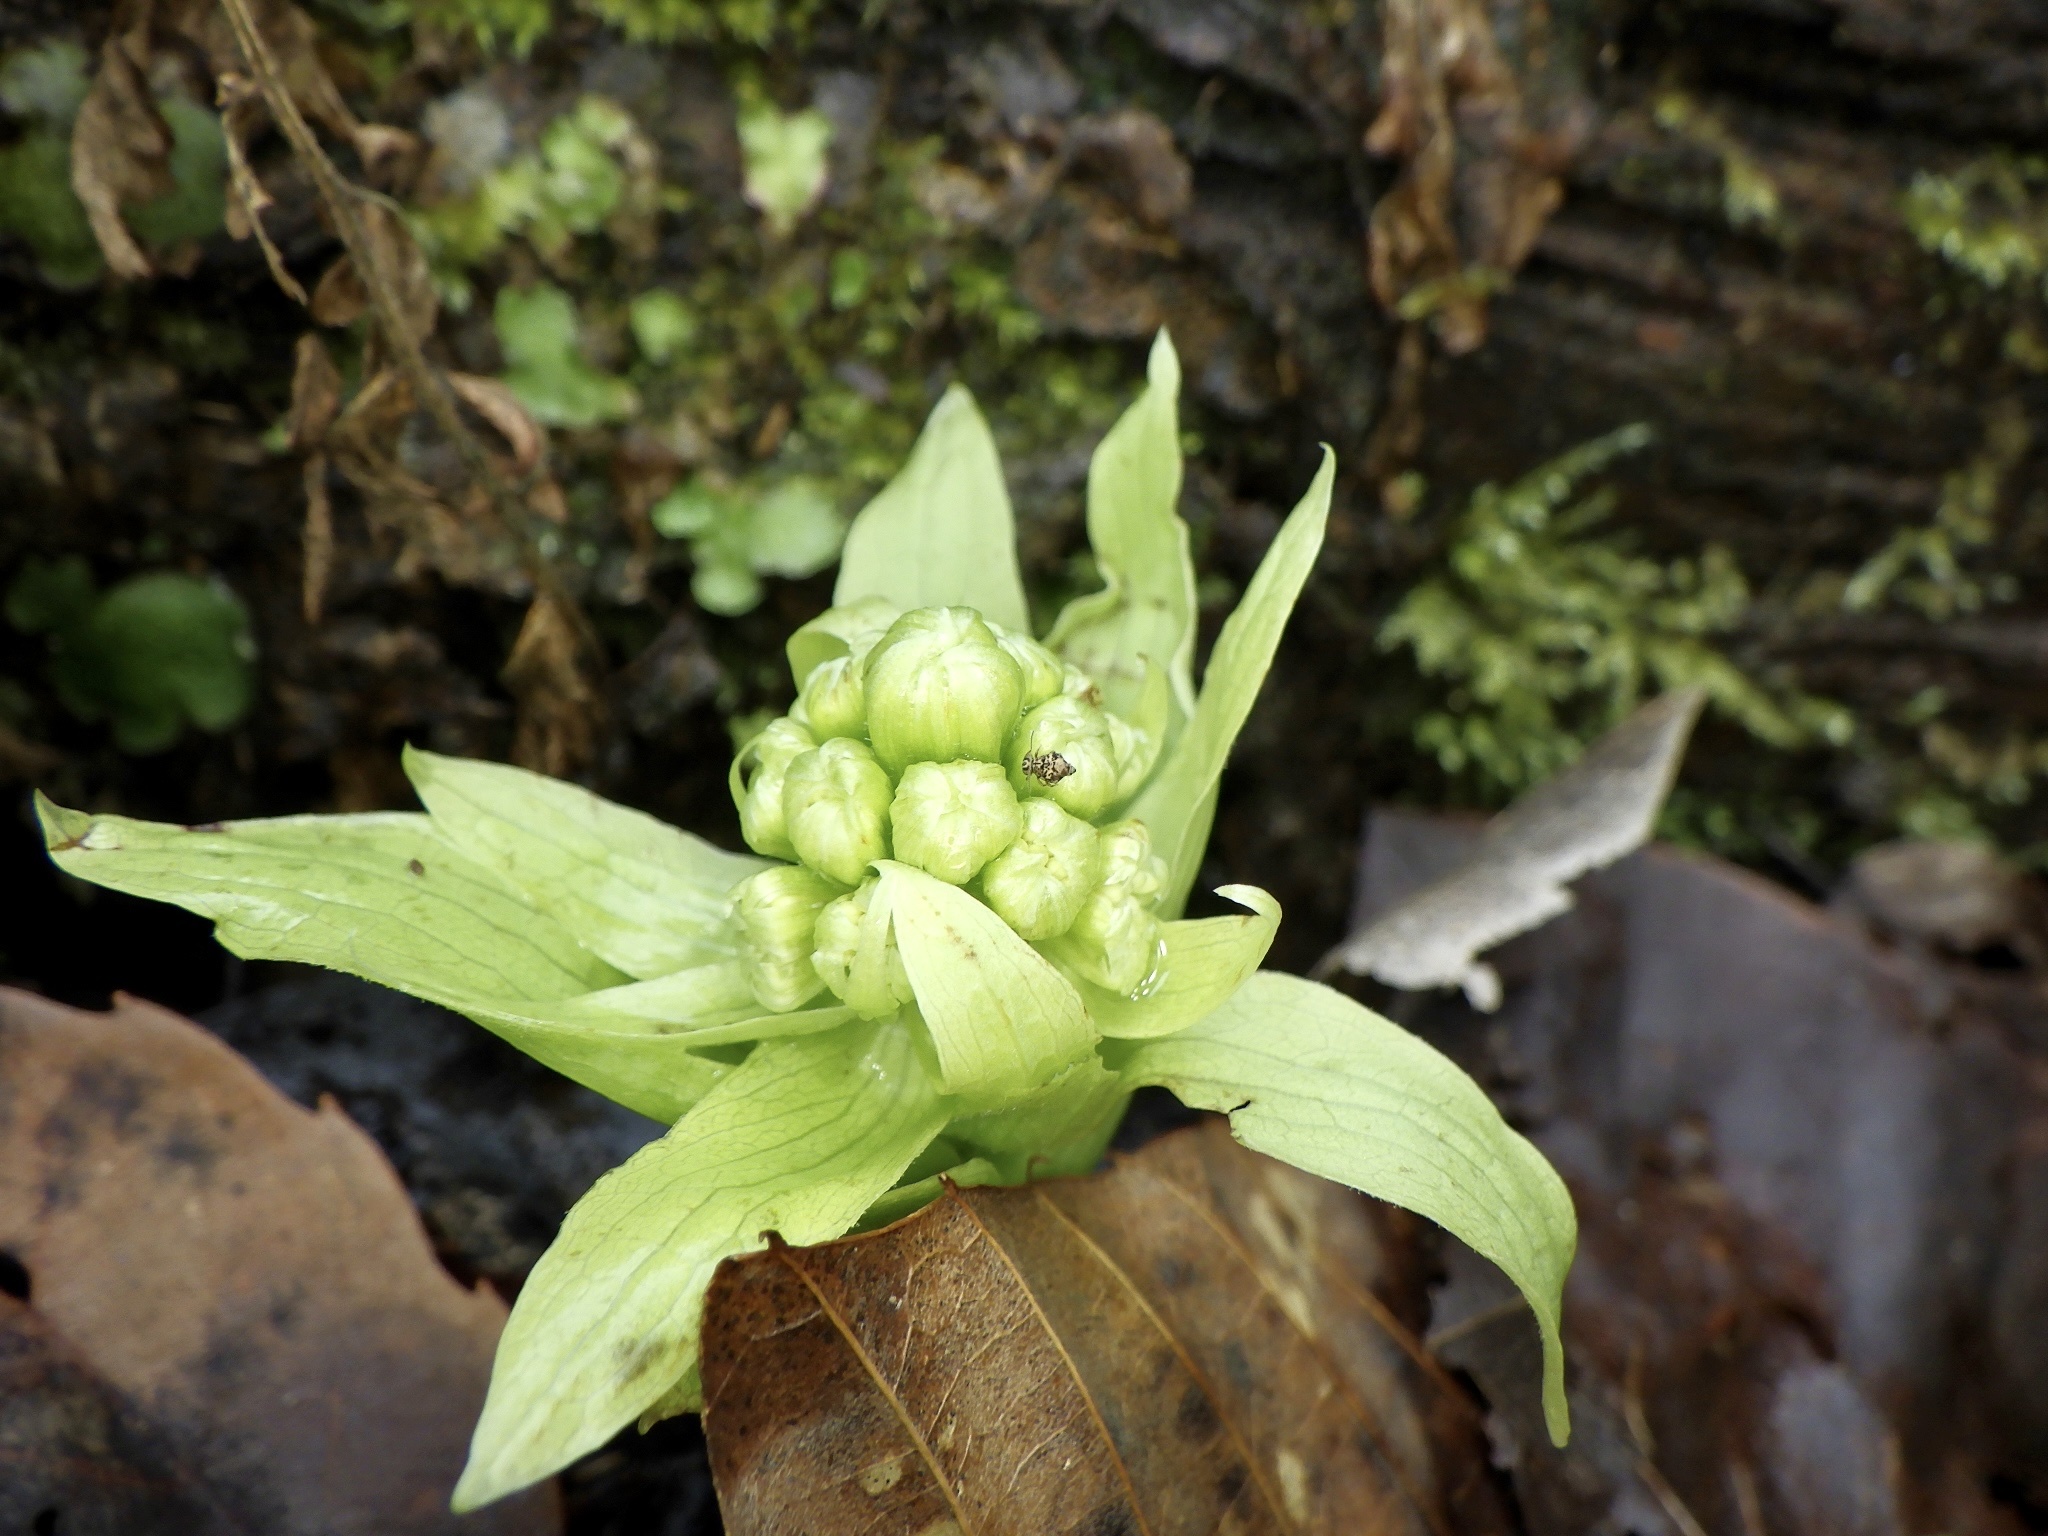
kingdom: Plantae
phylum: Tracheophyta
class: Magnoliopsida
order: Asterales
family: Asteraceae
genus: Petasites
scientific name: Petasites japonicus
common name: Giant butterbur
